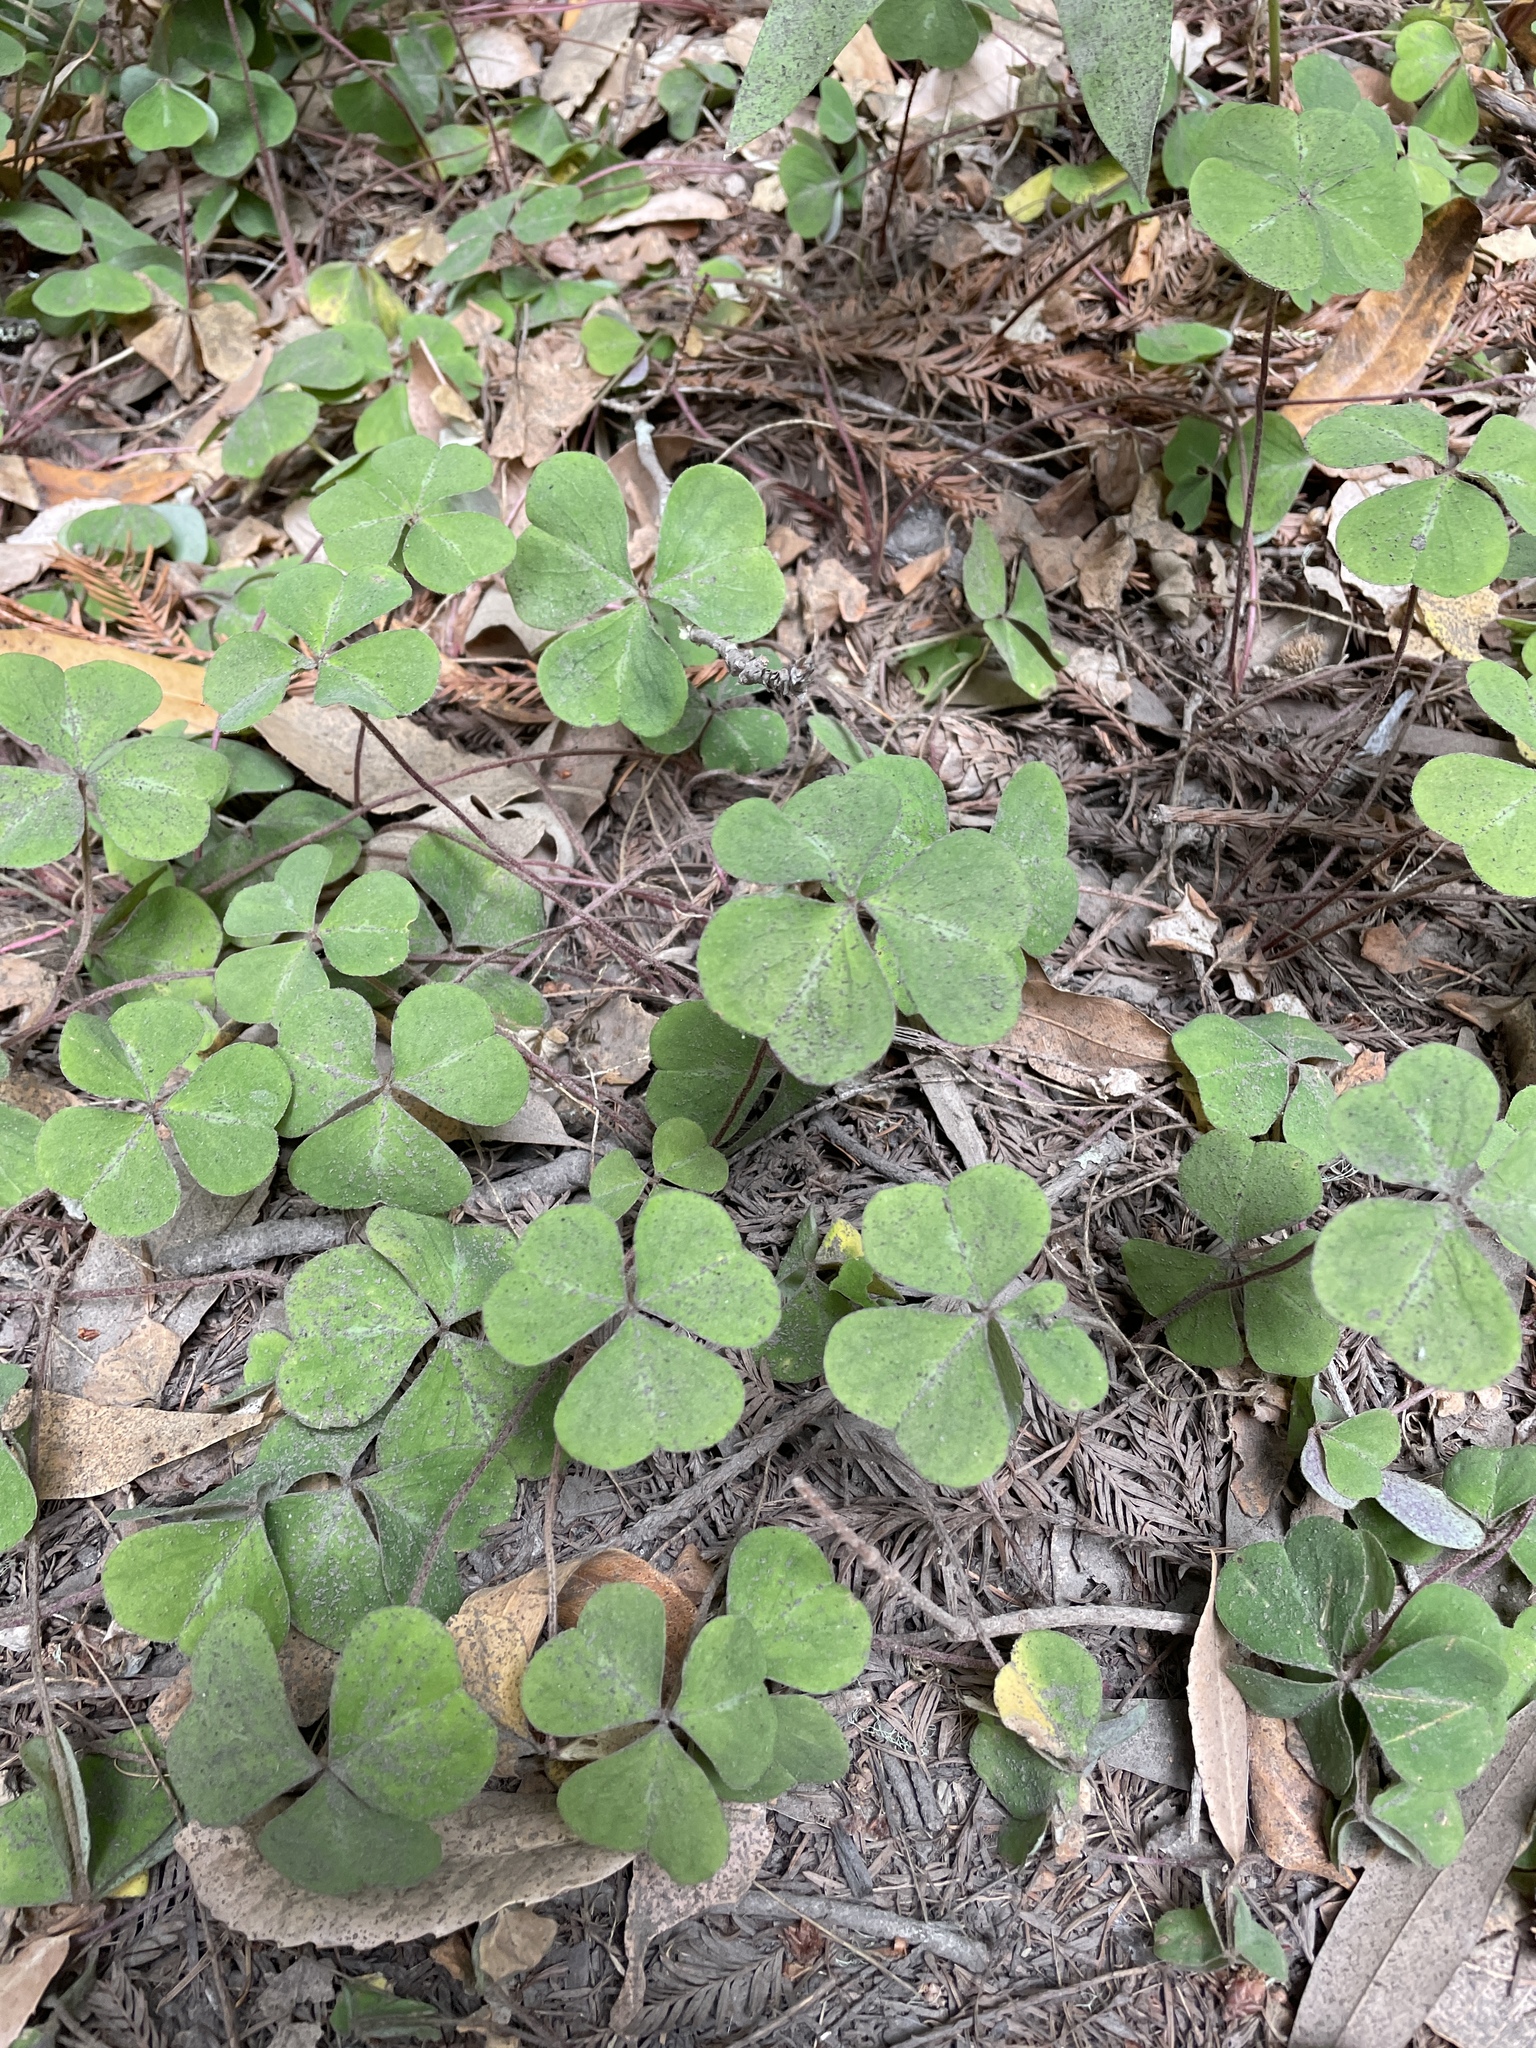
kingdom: Plantae
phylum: Tracheophyta
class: Magnoliopsida
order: Oxalidales
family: Oxalidaceae
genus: Oxalis
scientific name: Oxalis oregana
